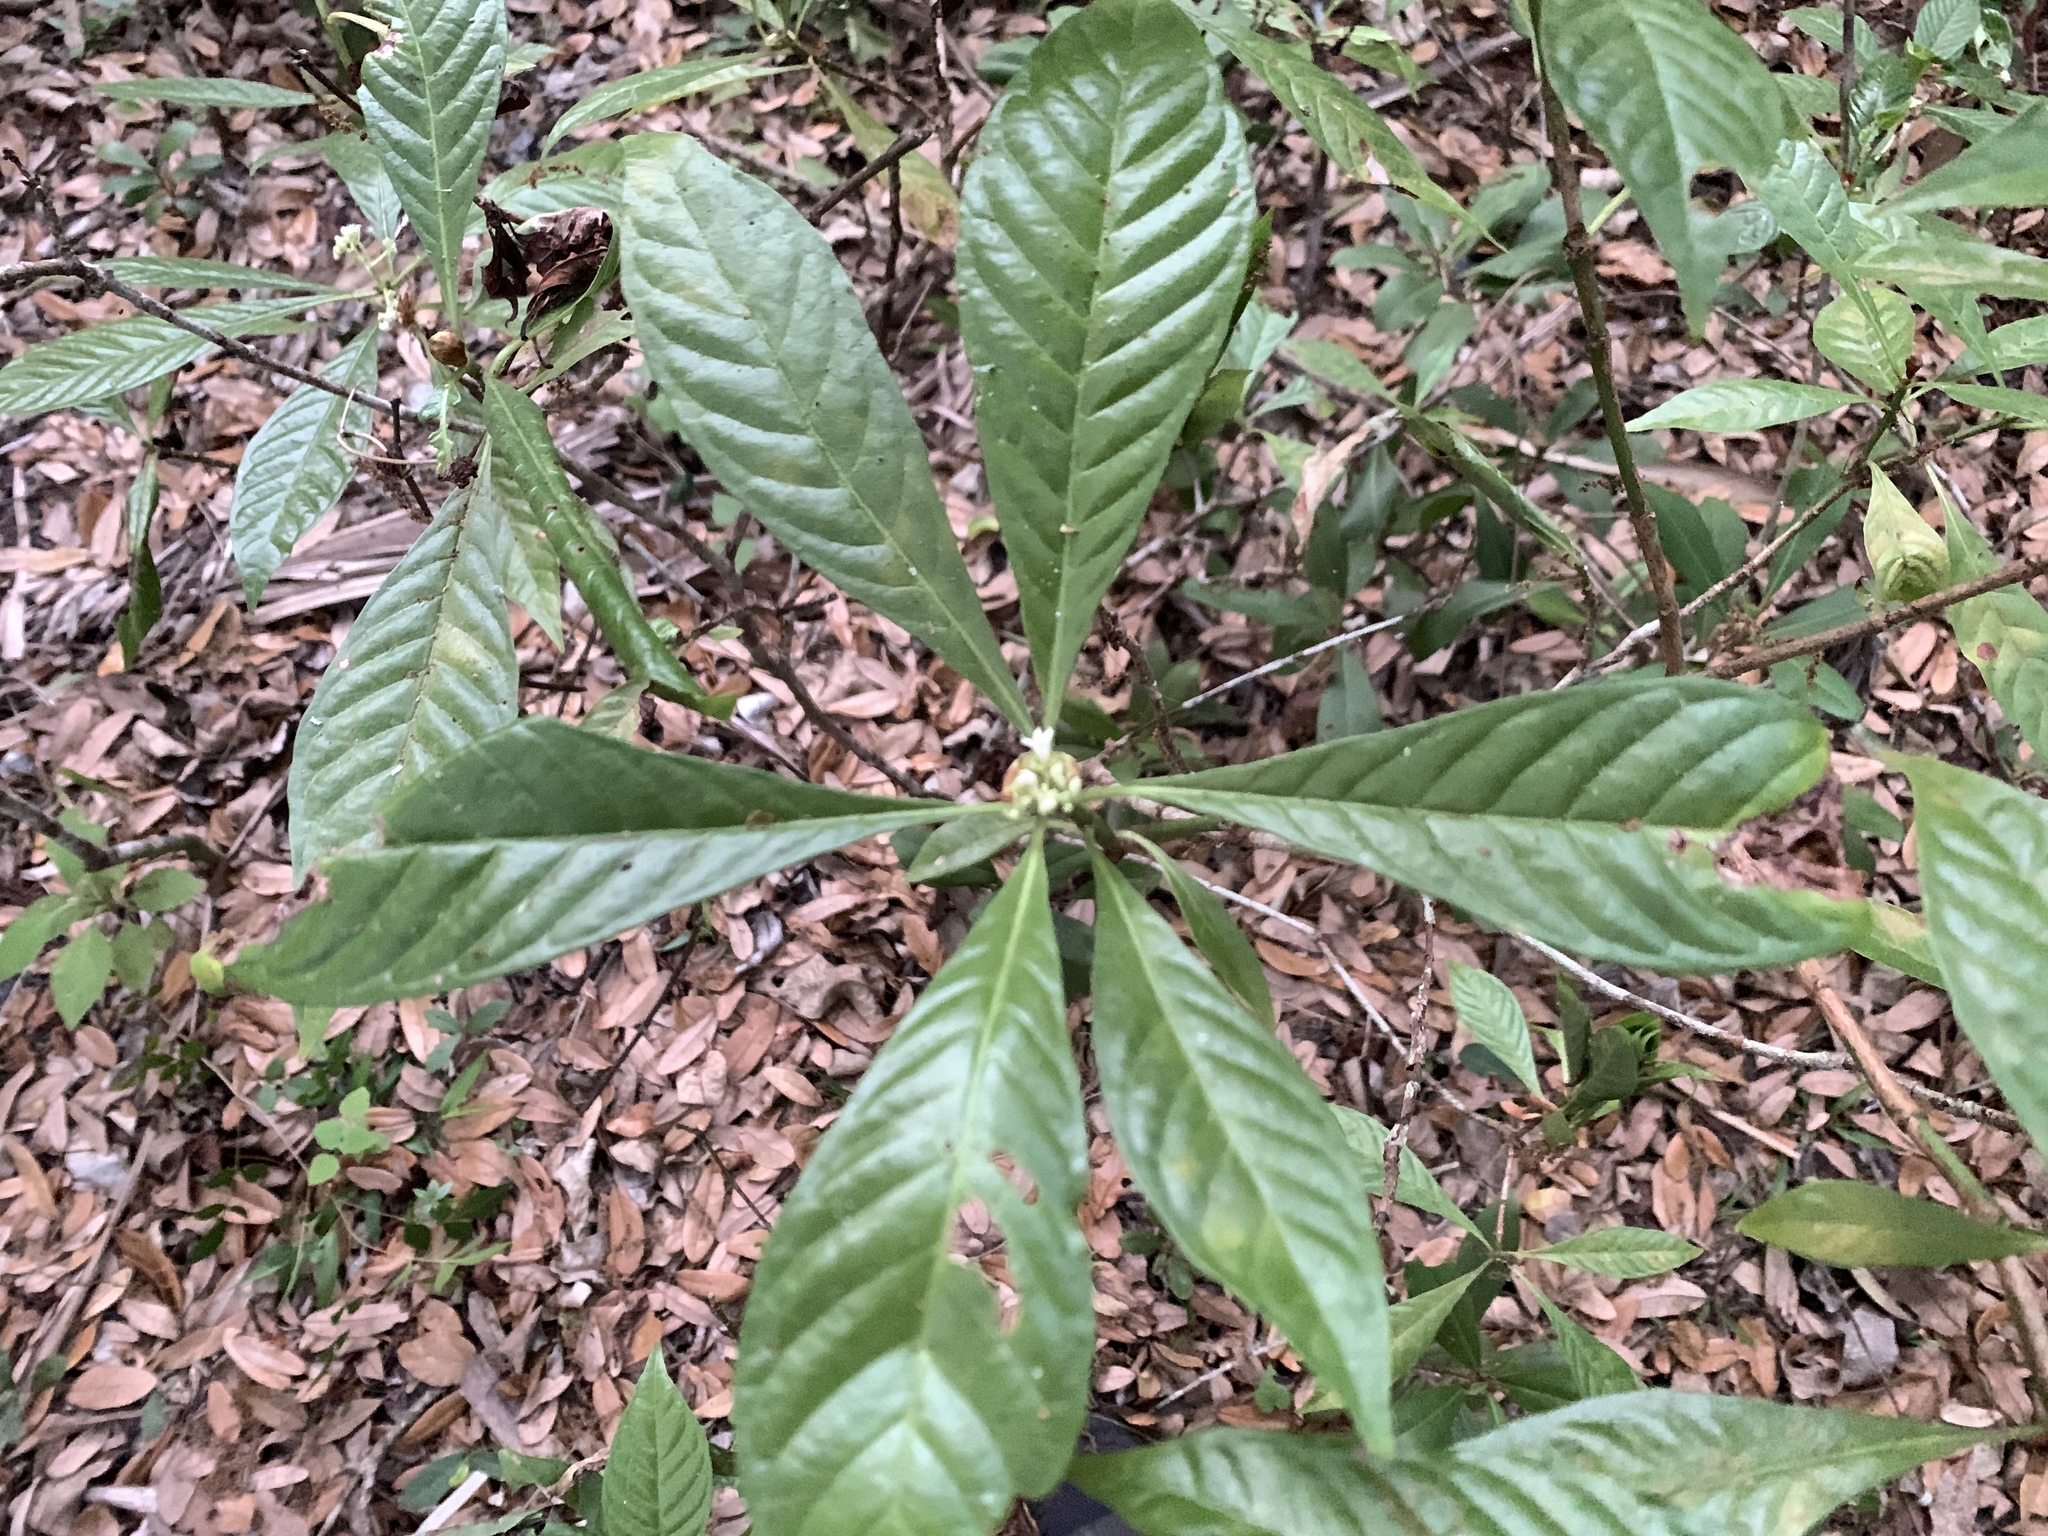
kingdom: Plantae
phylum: Tracheophyta
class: Magnoliopsida
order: Gentianales
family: Rubiaceae
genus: Psychotria
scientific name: Psychotria nervosa
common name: Bastard cankerberry
